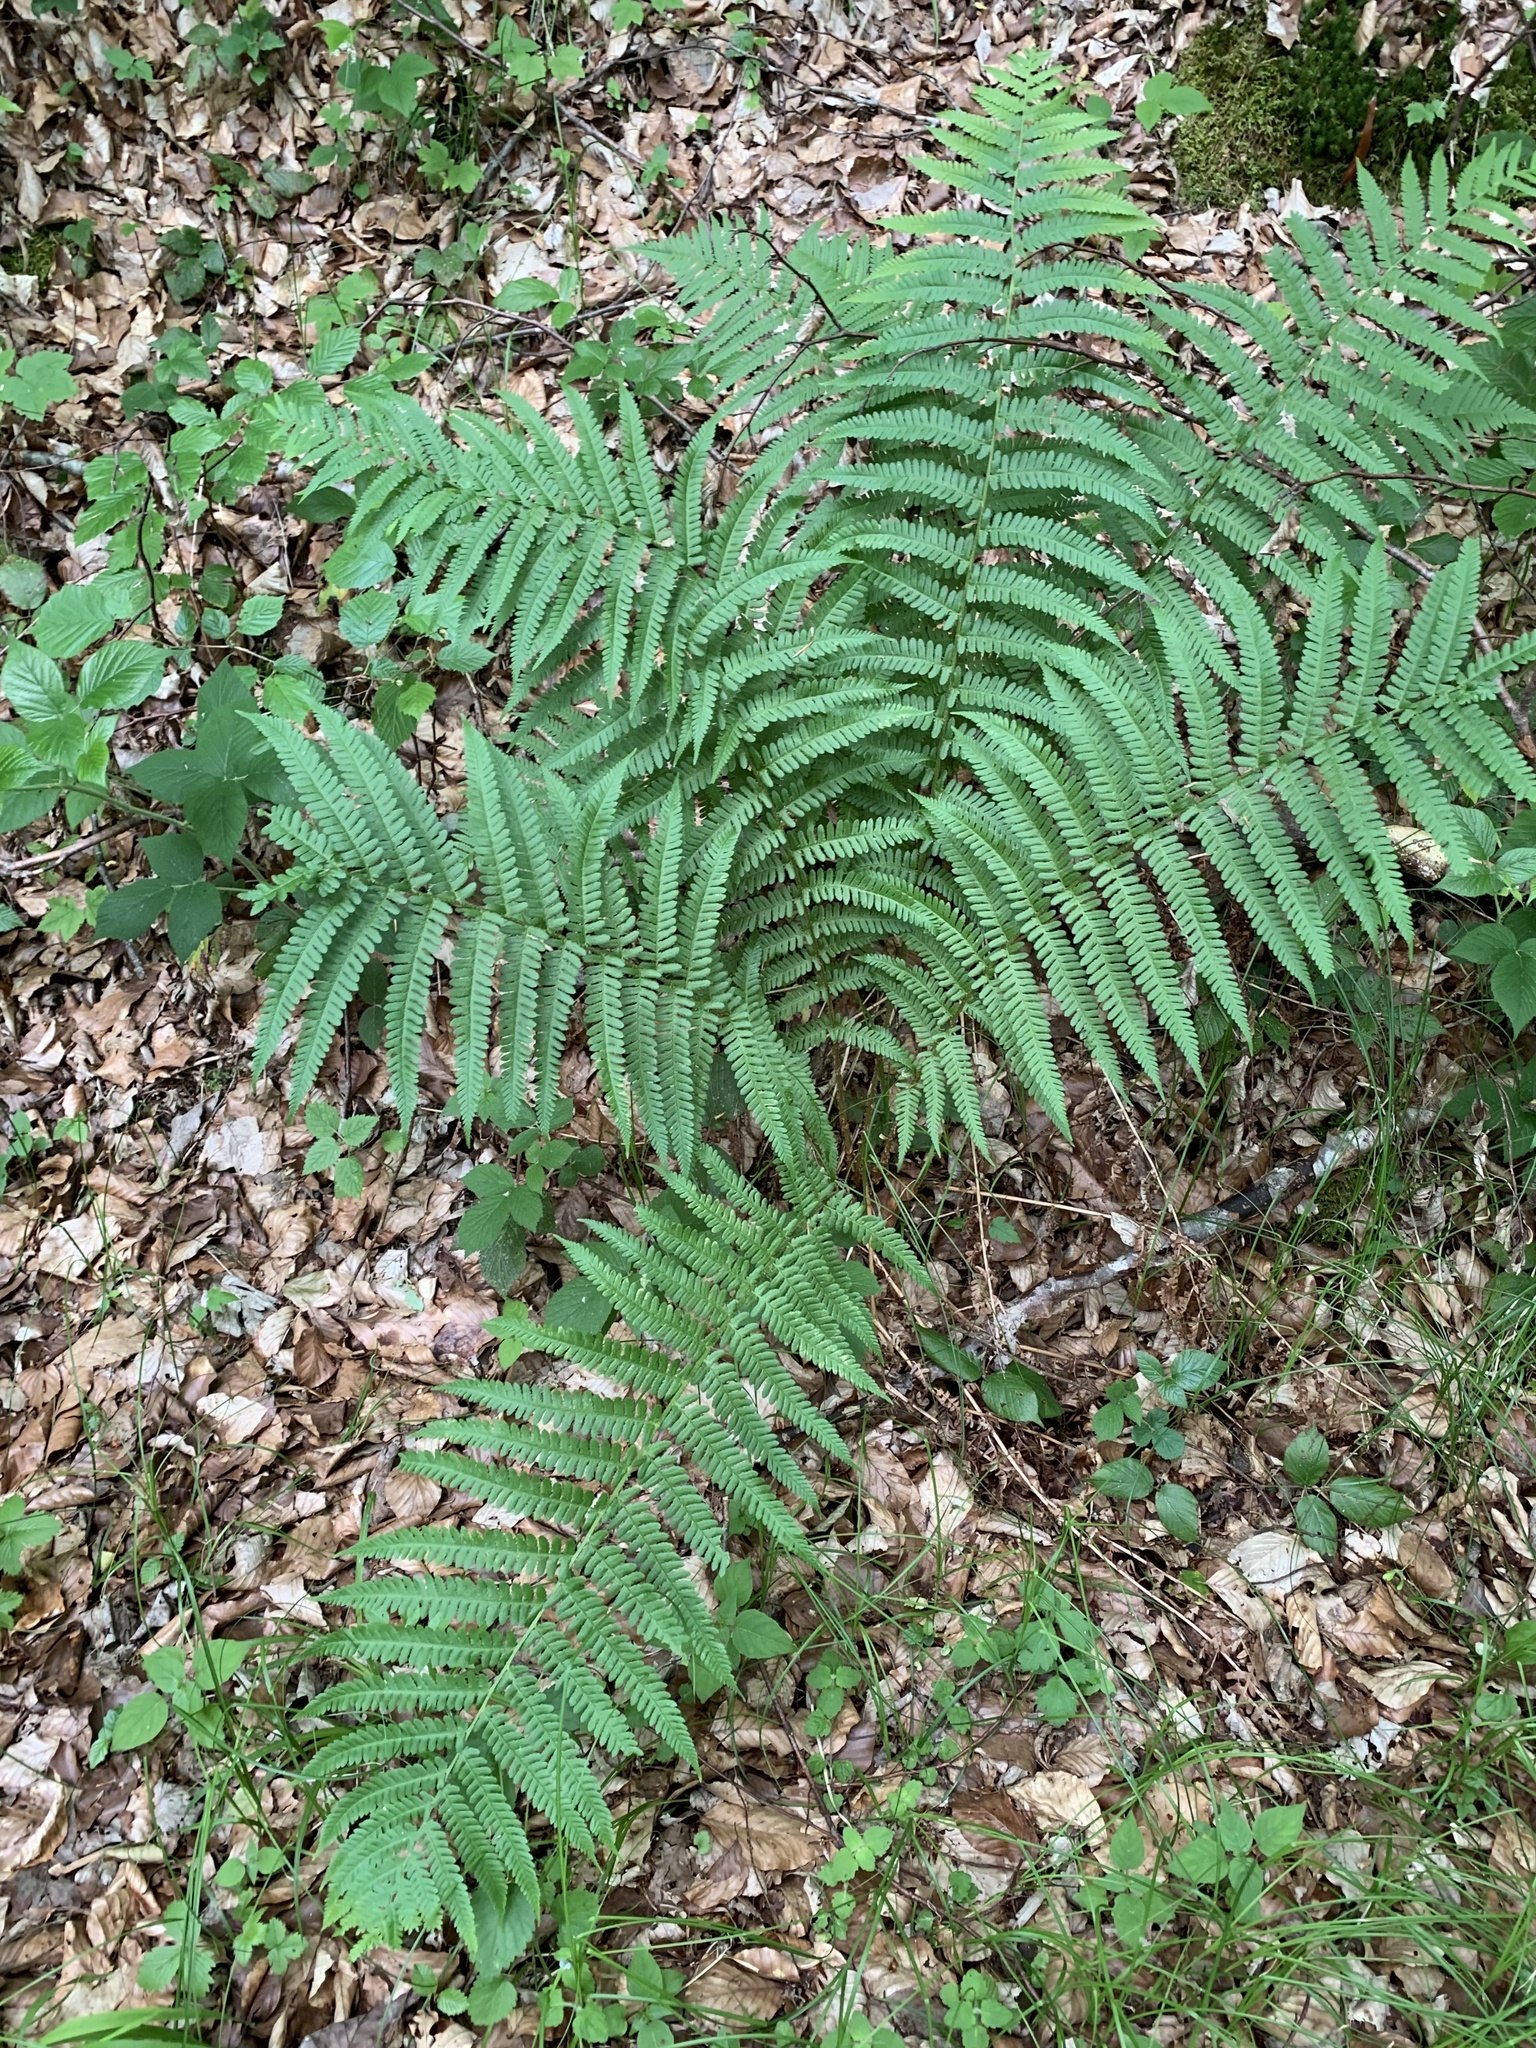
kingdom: Plantae
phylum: Tracheophyta
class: Polypodiopsida
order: Polypodiales
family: Dryopteridaceae
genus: Dryopteris
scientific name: Dryopteris filix-mas
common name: Male fern
